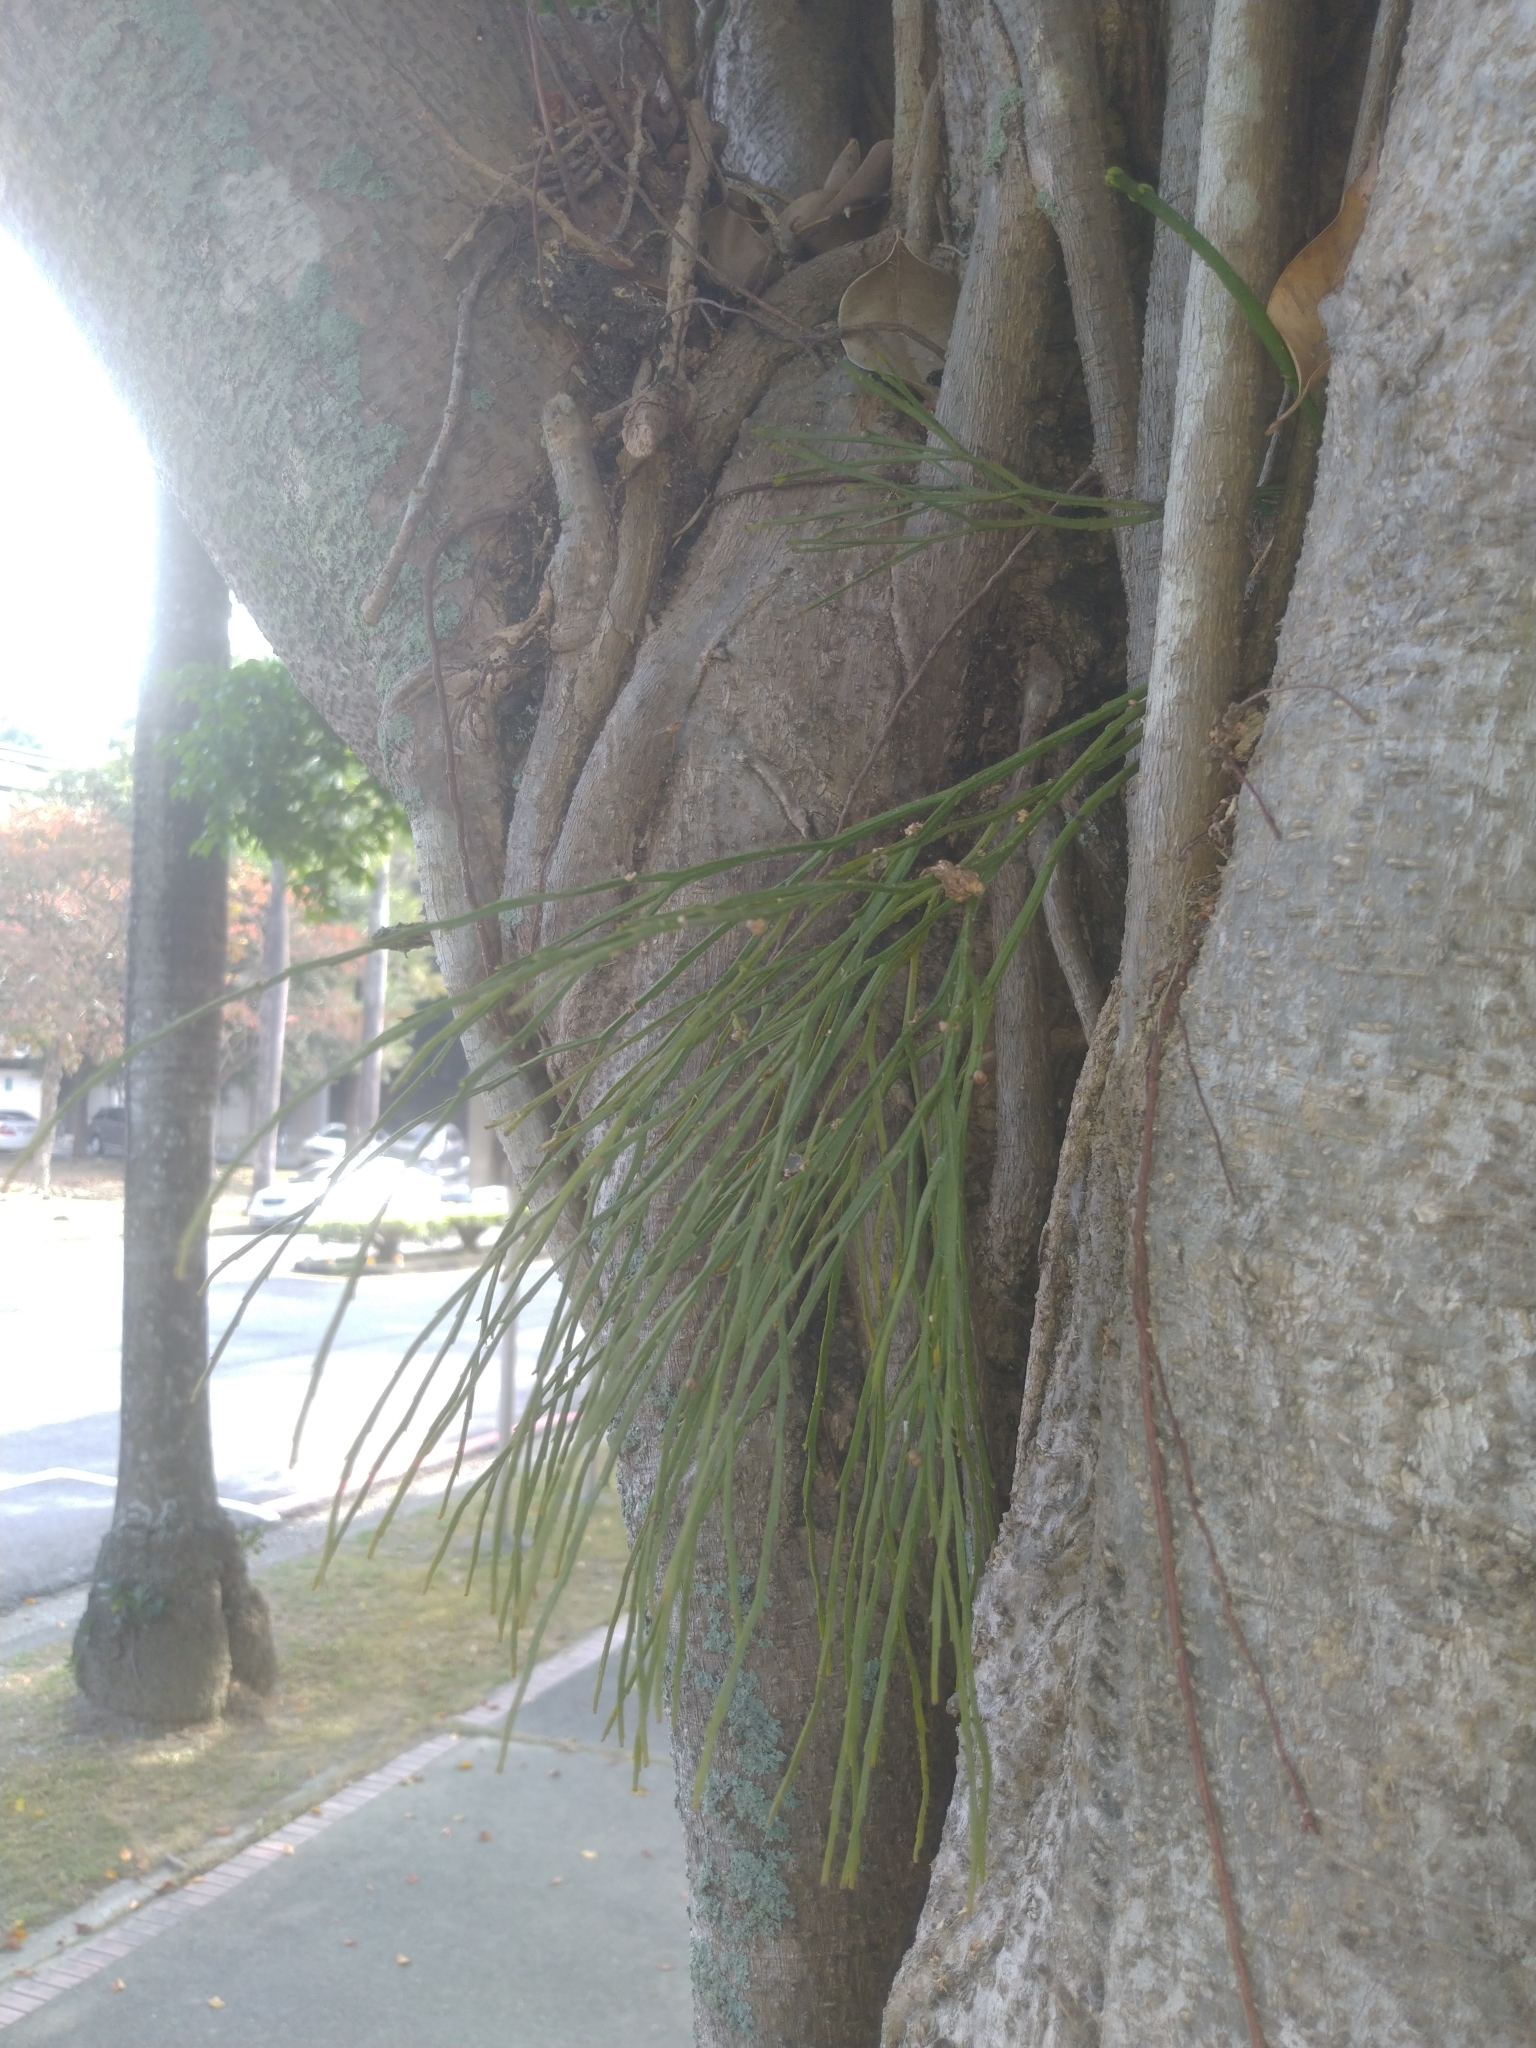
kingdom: Plantae
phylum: Tracheophyta
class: Polypodiopsida
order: Psilotales
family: Psilotaceae
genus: Psilotum
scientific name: Psilotum nudum
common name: Skeleton fork fern
